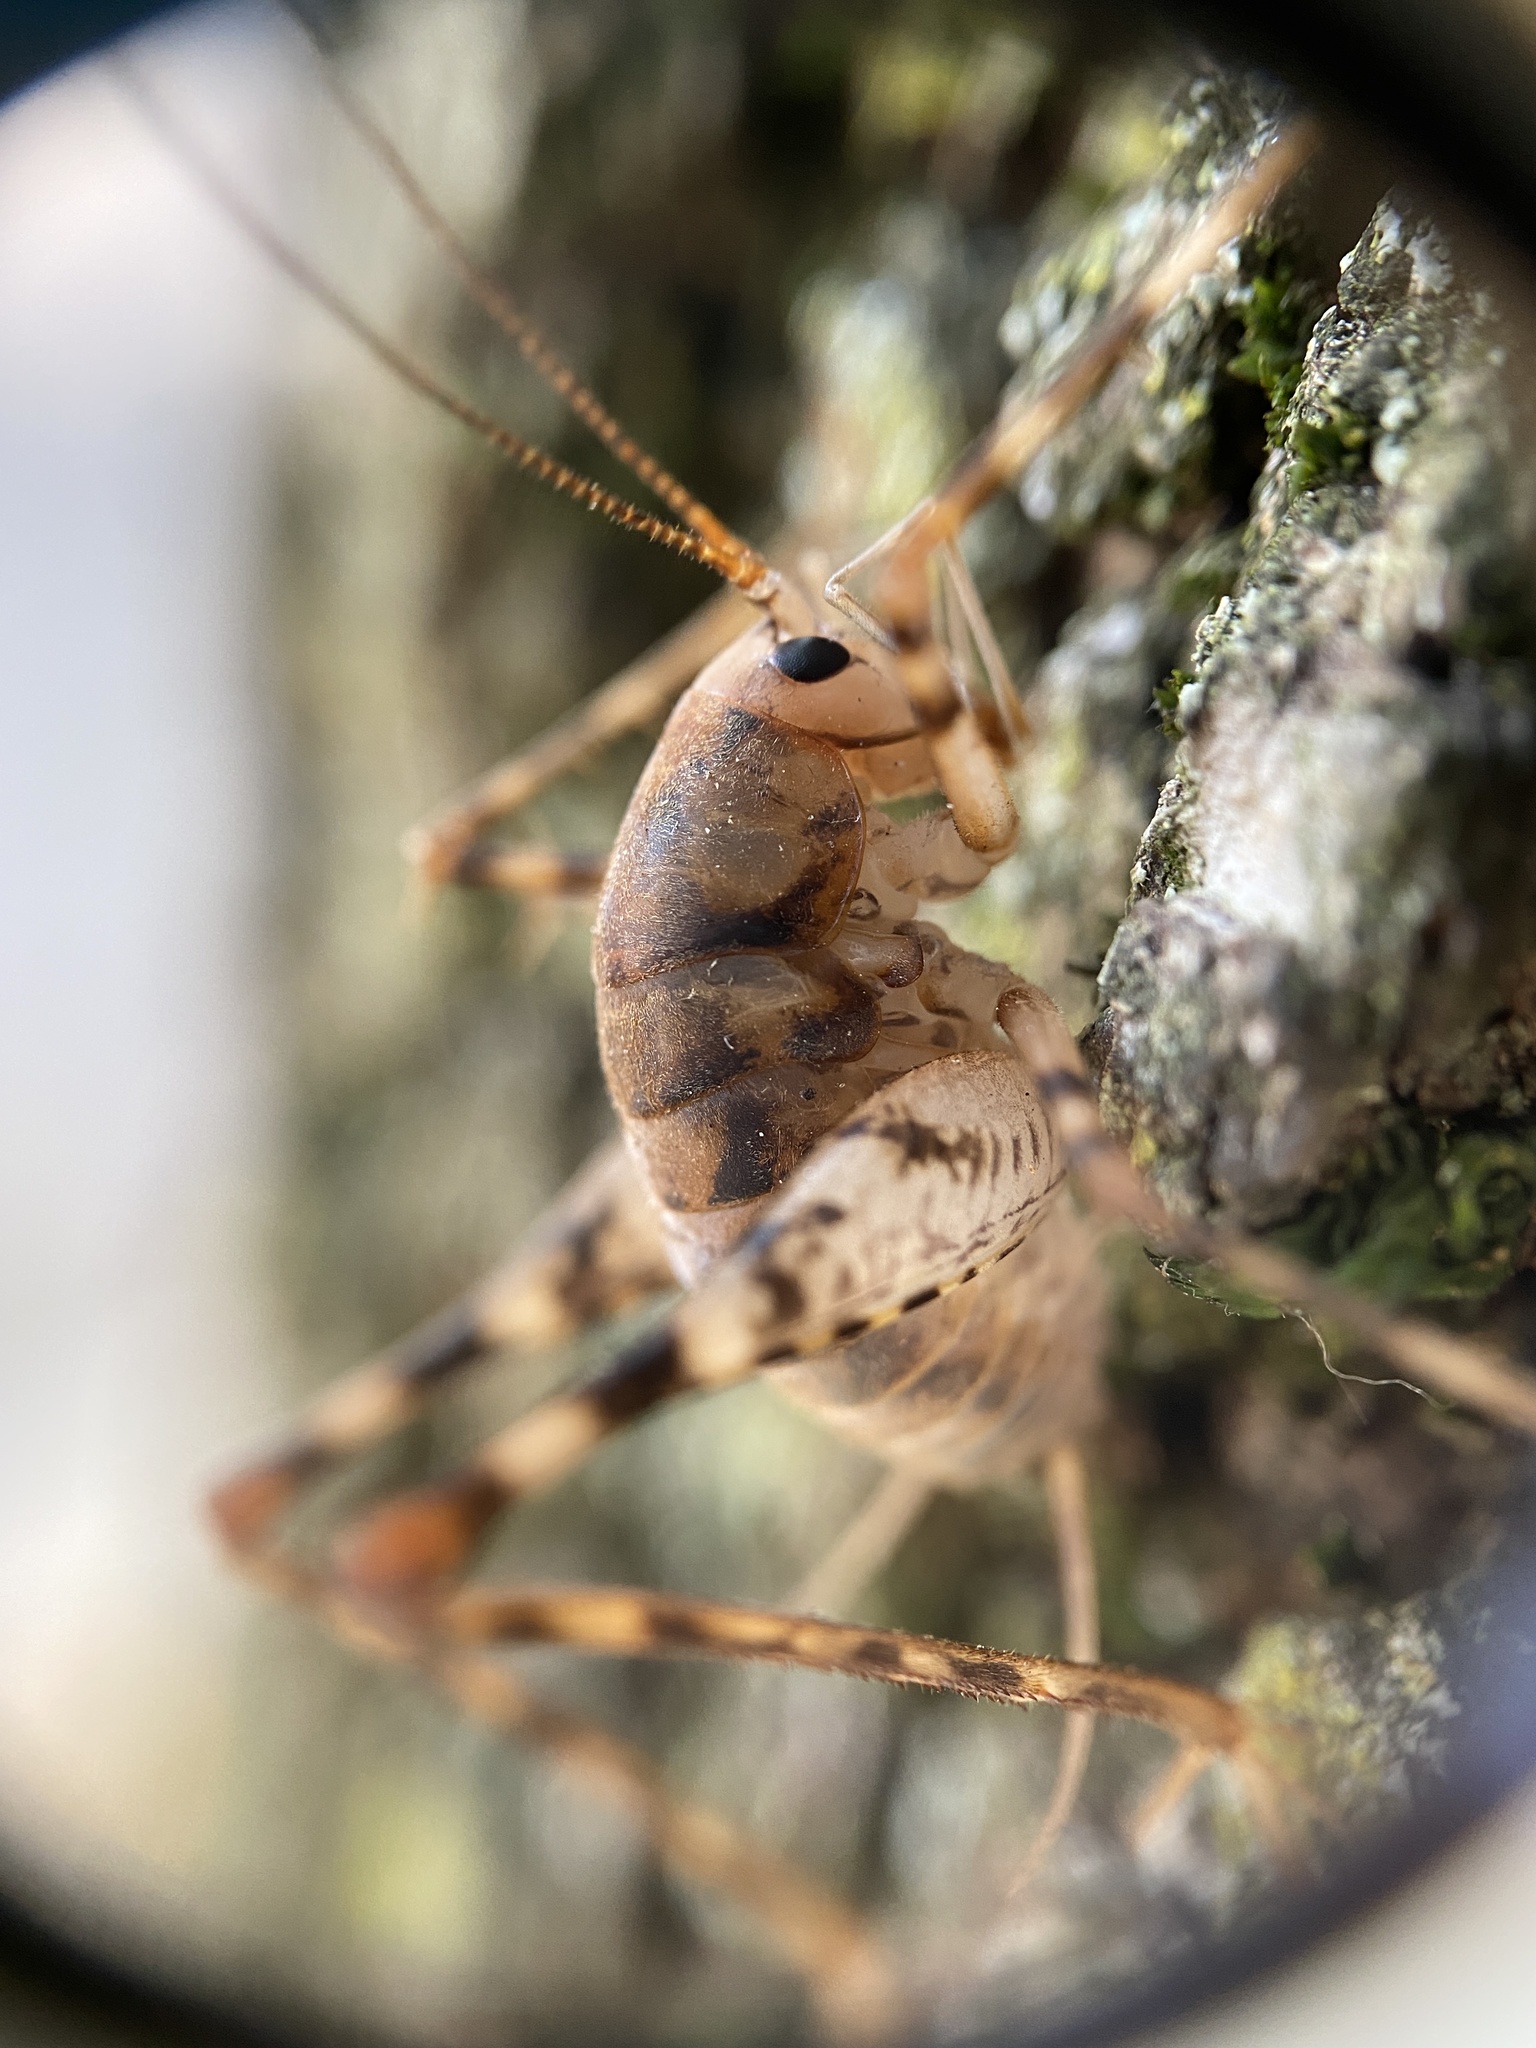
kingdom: Animalia
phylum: Arthropoda
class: Insecta
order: Orthoptera
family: Rhaphidophoridae
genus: Tachycines
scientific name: Tachycines asynamorus
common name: Greenhouse camel cricket
